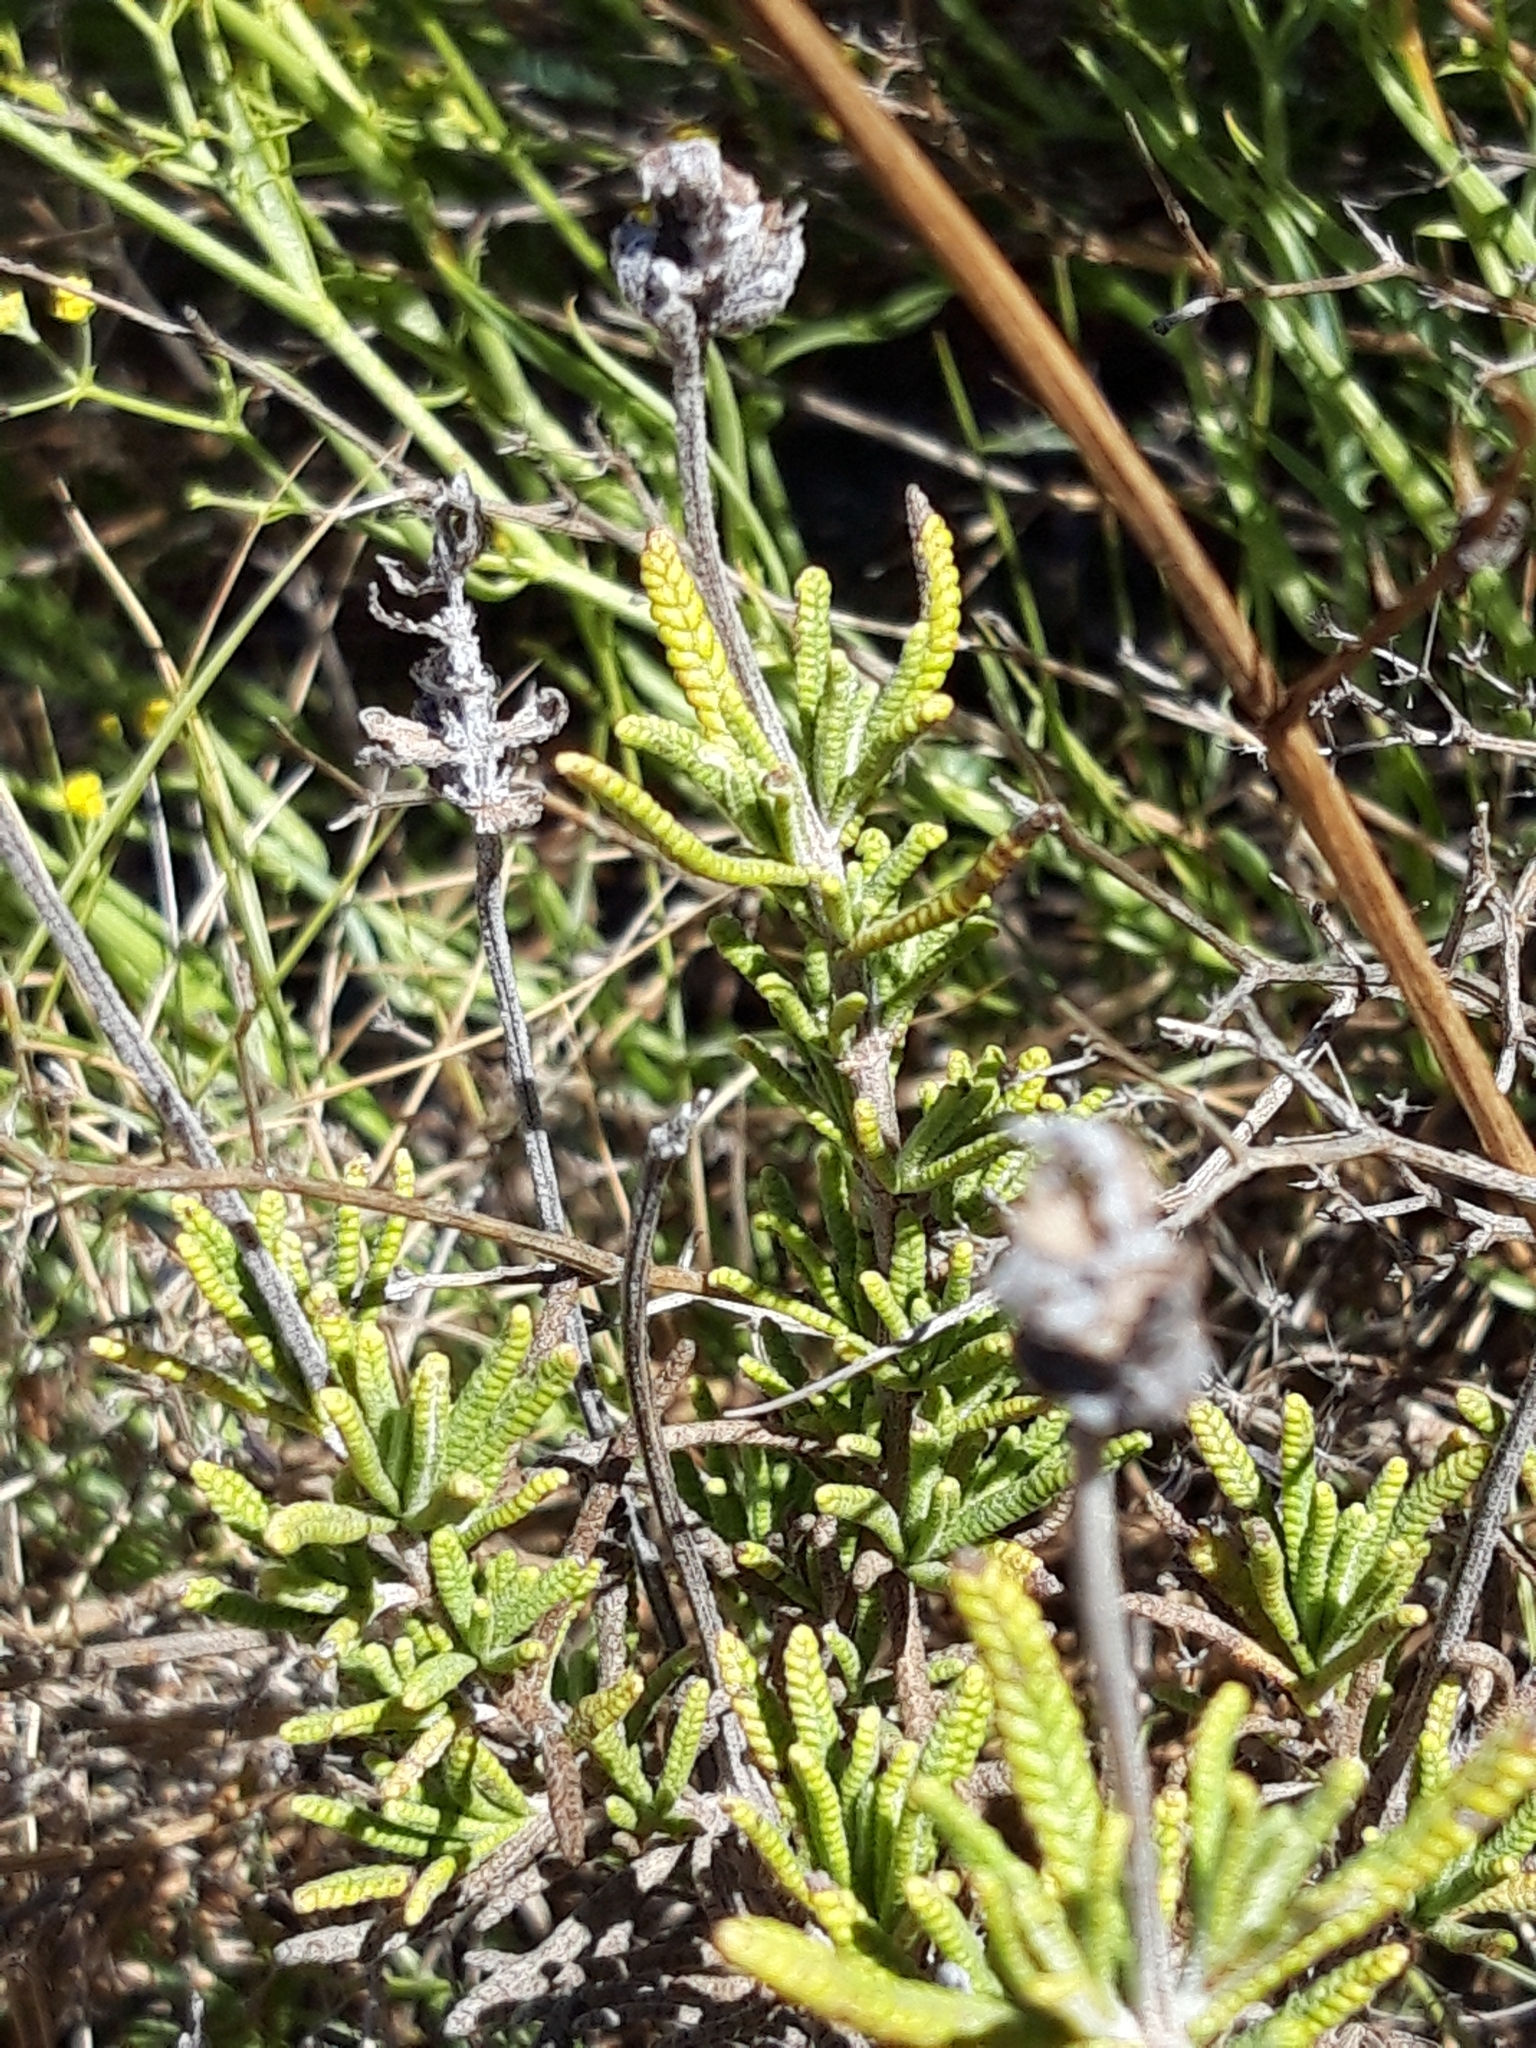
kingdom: Plantae
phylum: Tracheophyta
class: Magnoliopsida
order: Lamiales
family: Lamiaceae
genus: Lavandula
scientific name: Lavandula dentata
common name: French lavender
